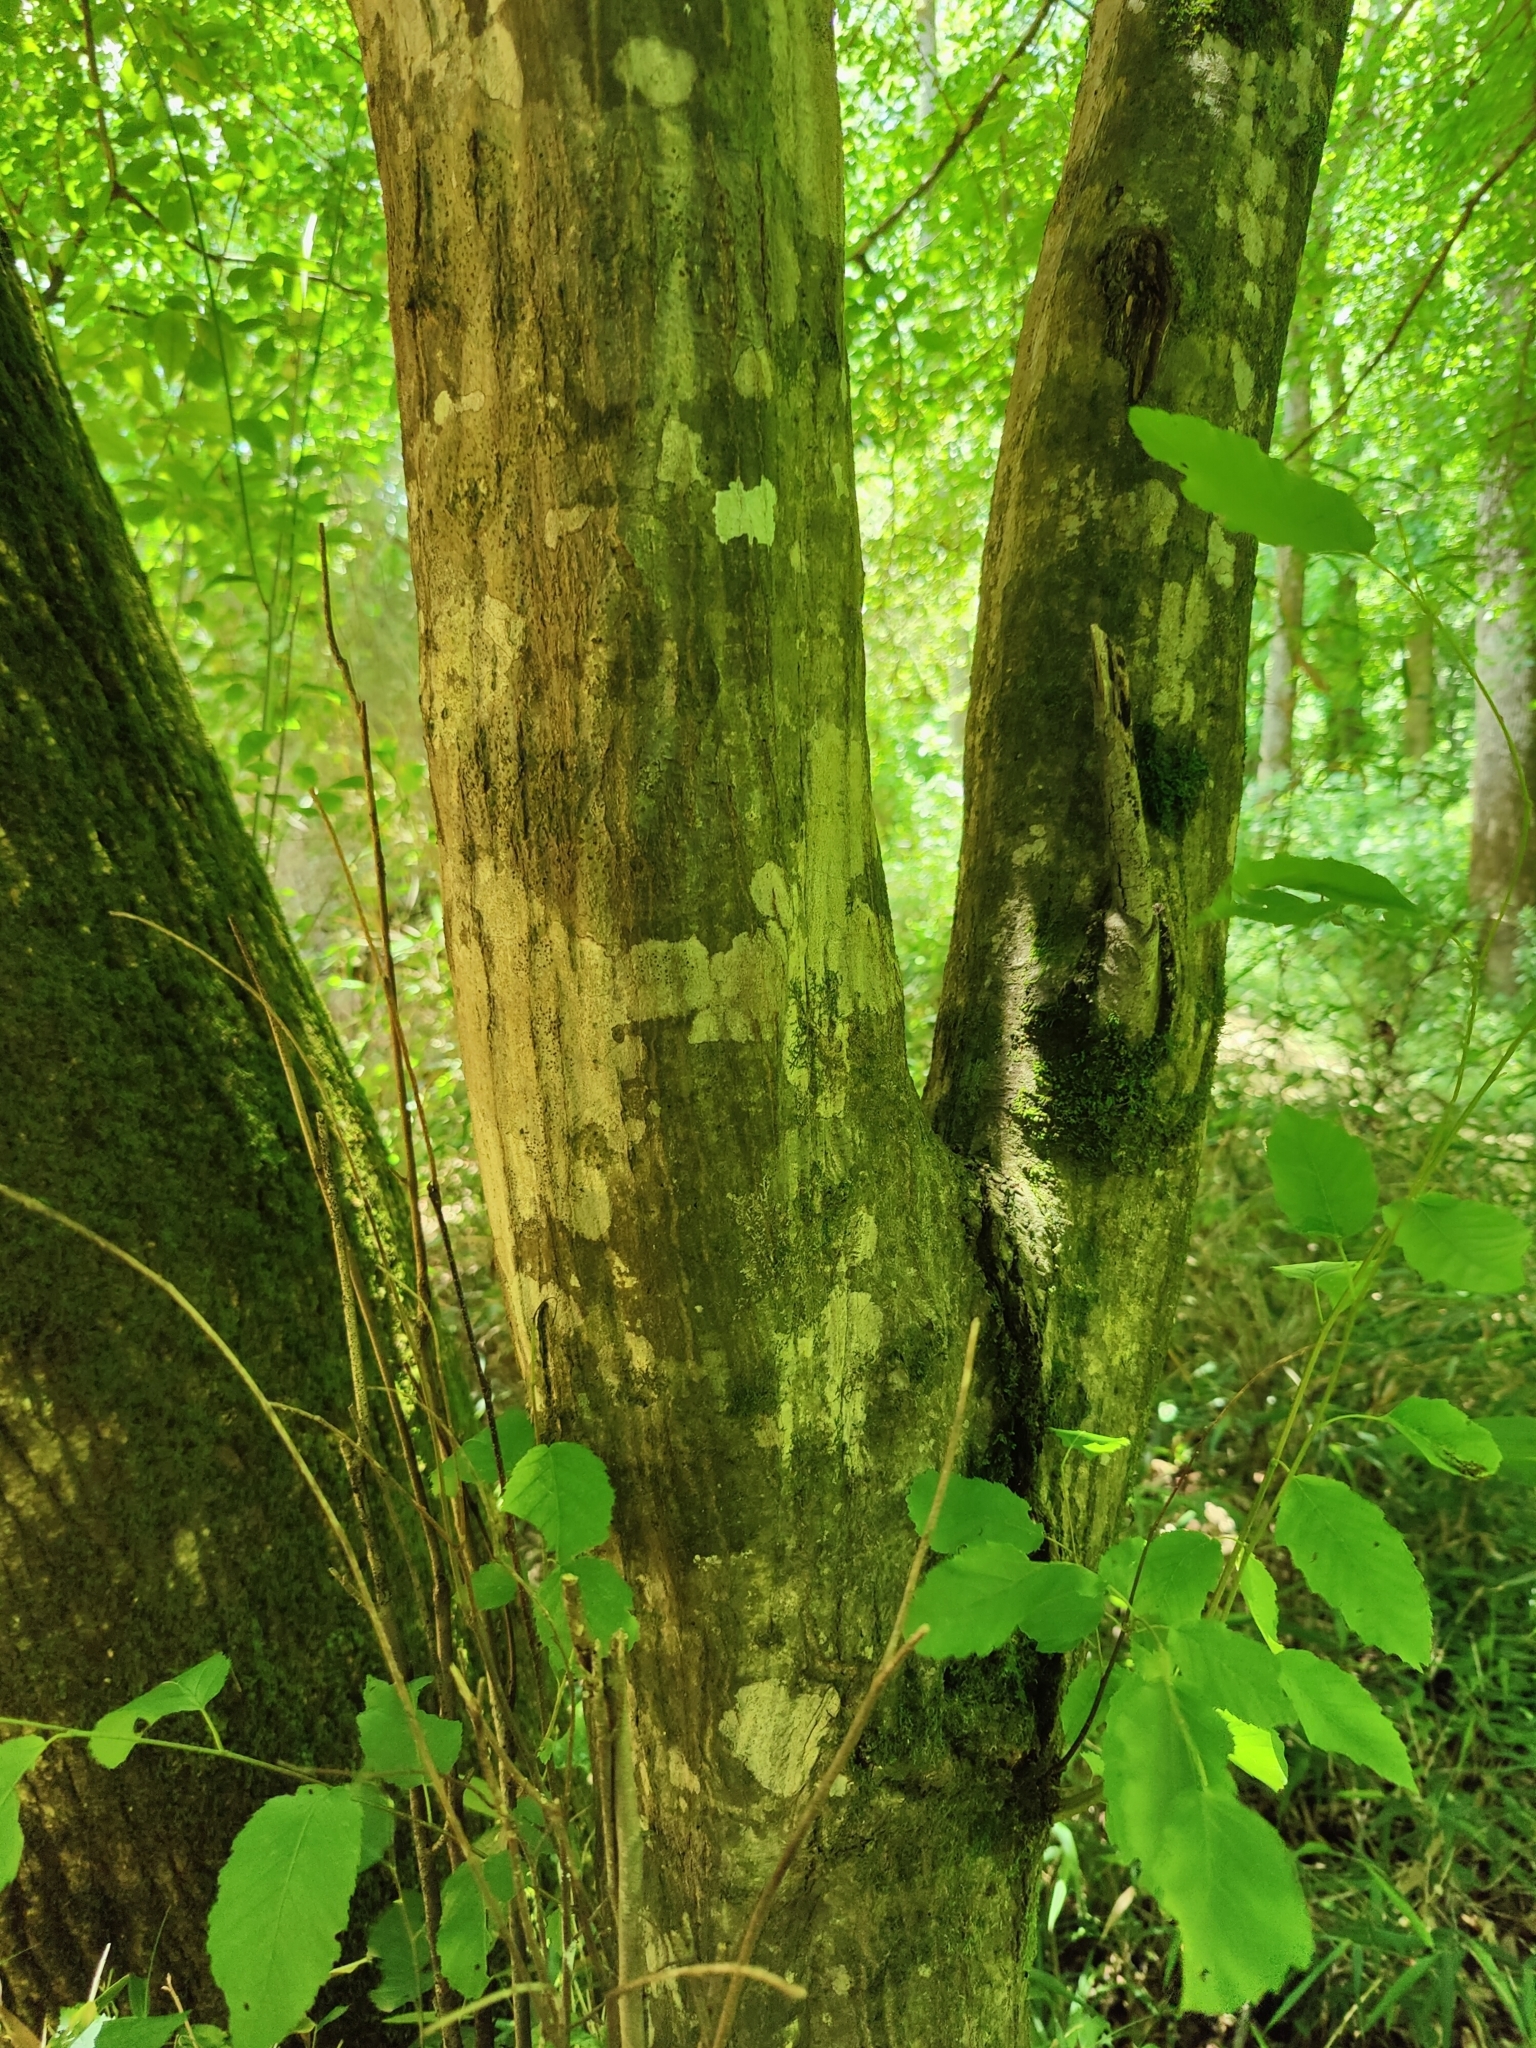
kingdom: Plantae
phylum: Tracheophyta
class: Magnoliopsida
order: Fagales
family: Betulaceae
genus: Carpinus
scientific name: Carpinus caroliniana
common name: American hornbeam
